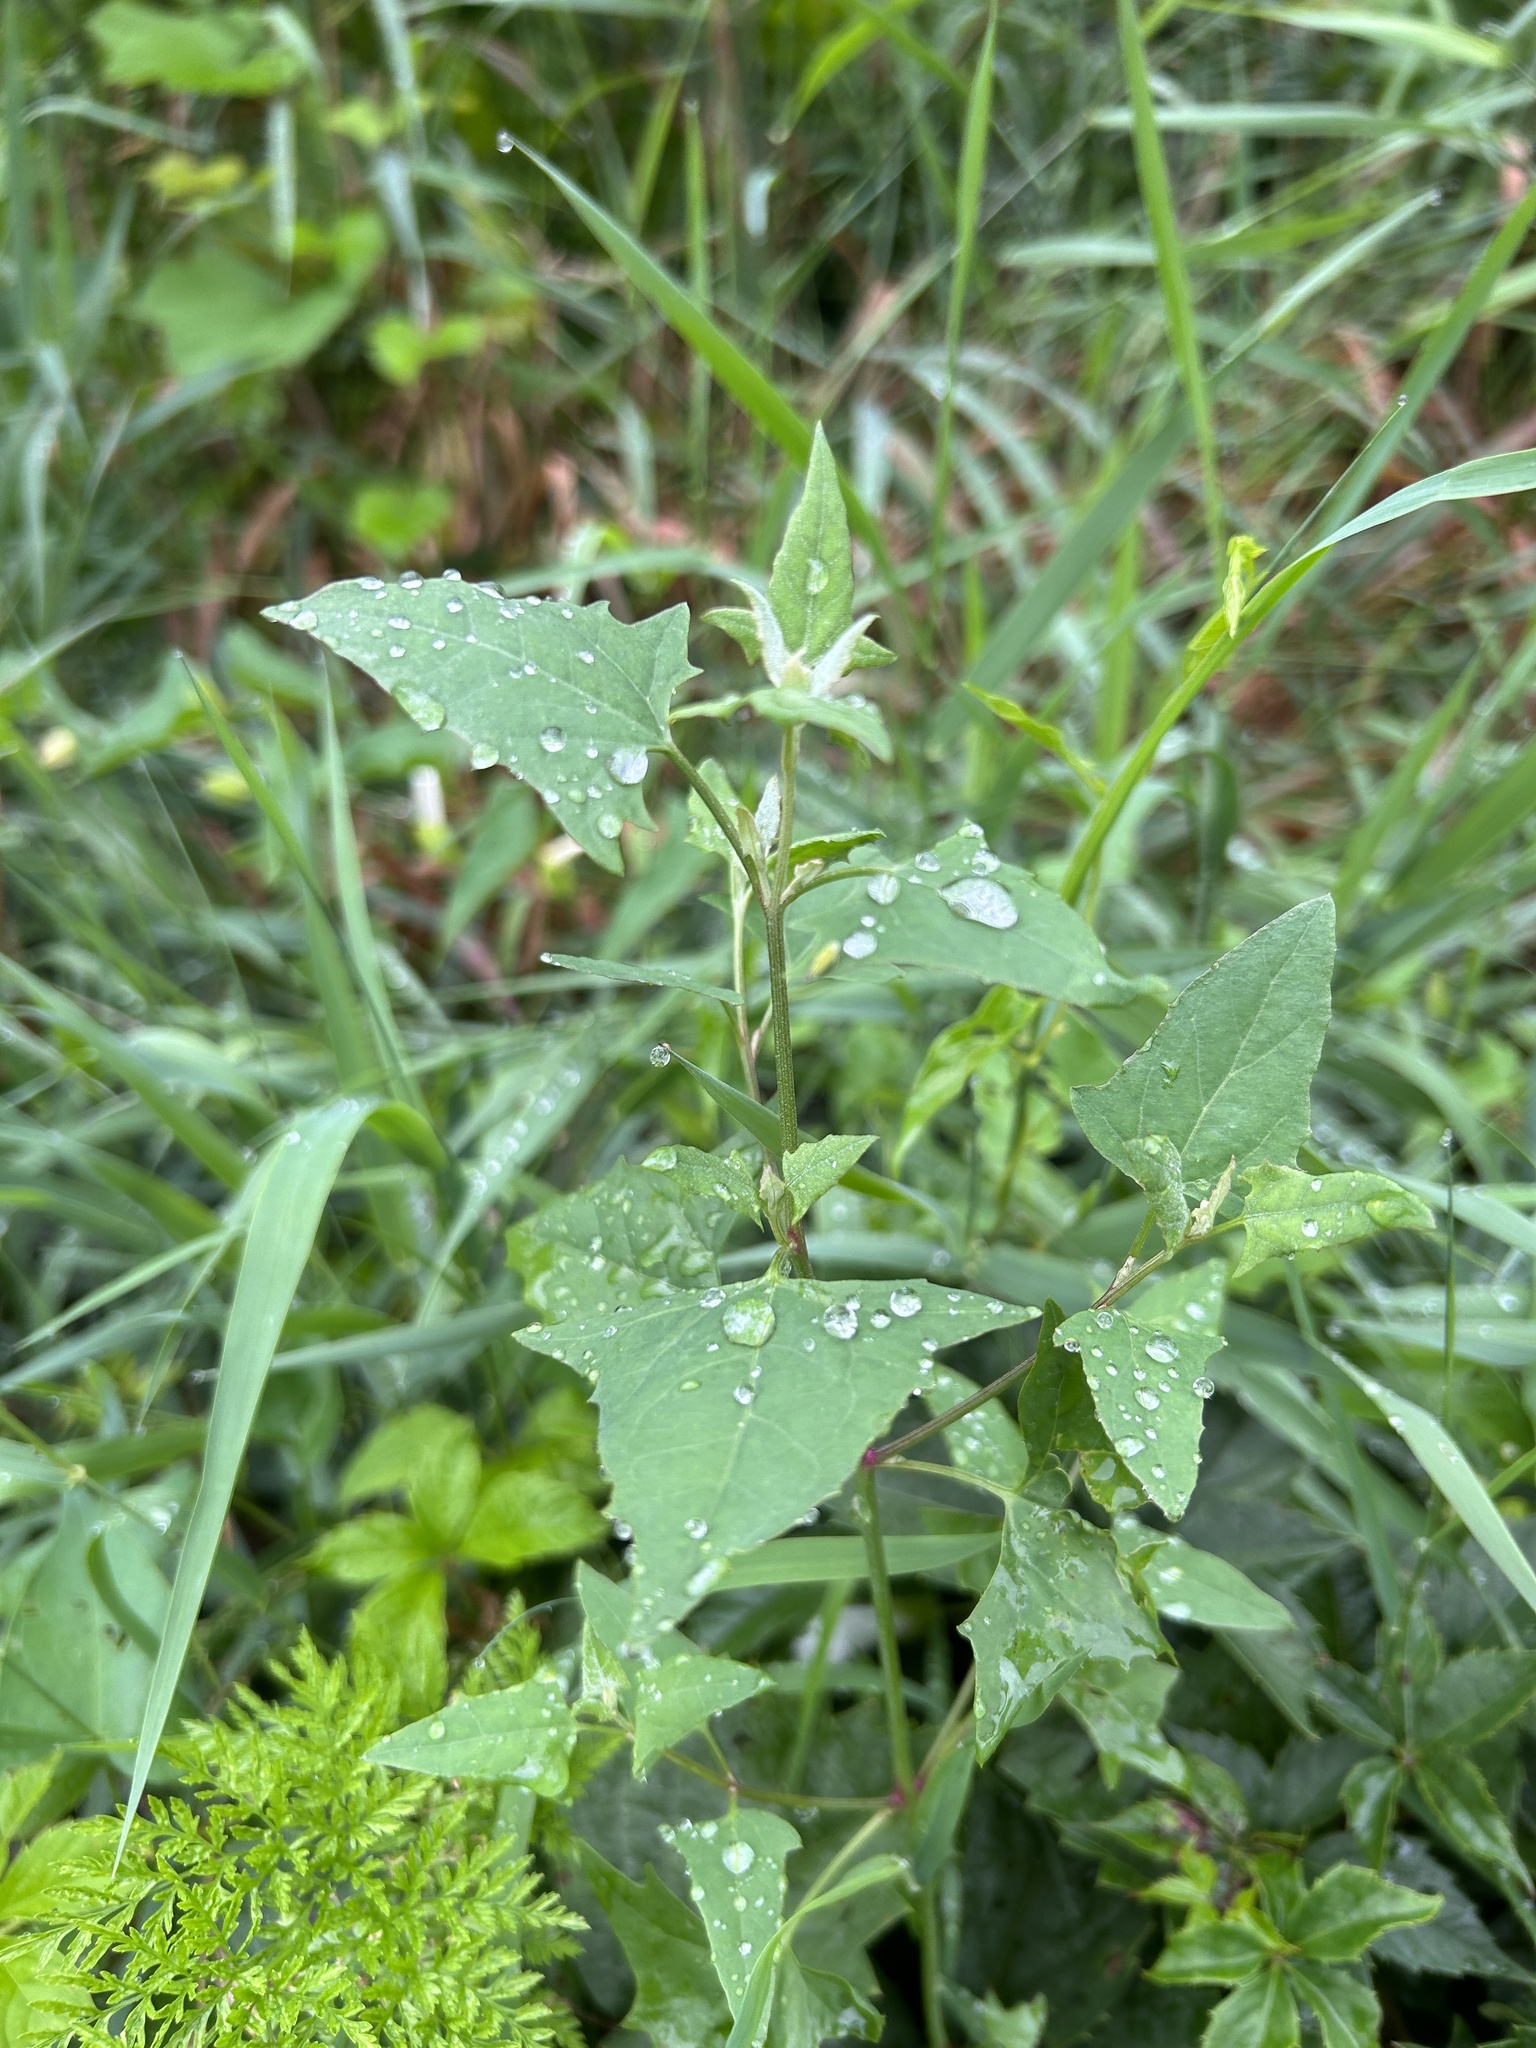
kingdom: Plantae
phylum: Tracheophyta
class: Magnoliopsida
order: Caryophyllales
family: Polygonaceae
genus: Persicaria
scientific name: Persicaria perfoliata
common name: Asiatic tearthumb
